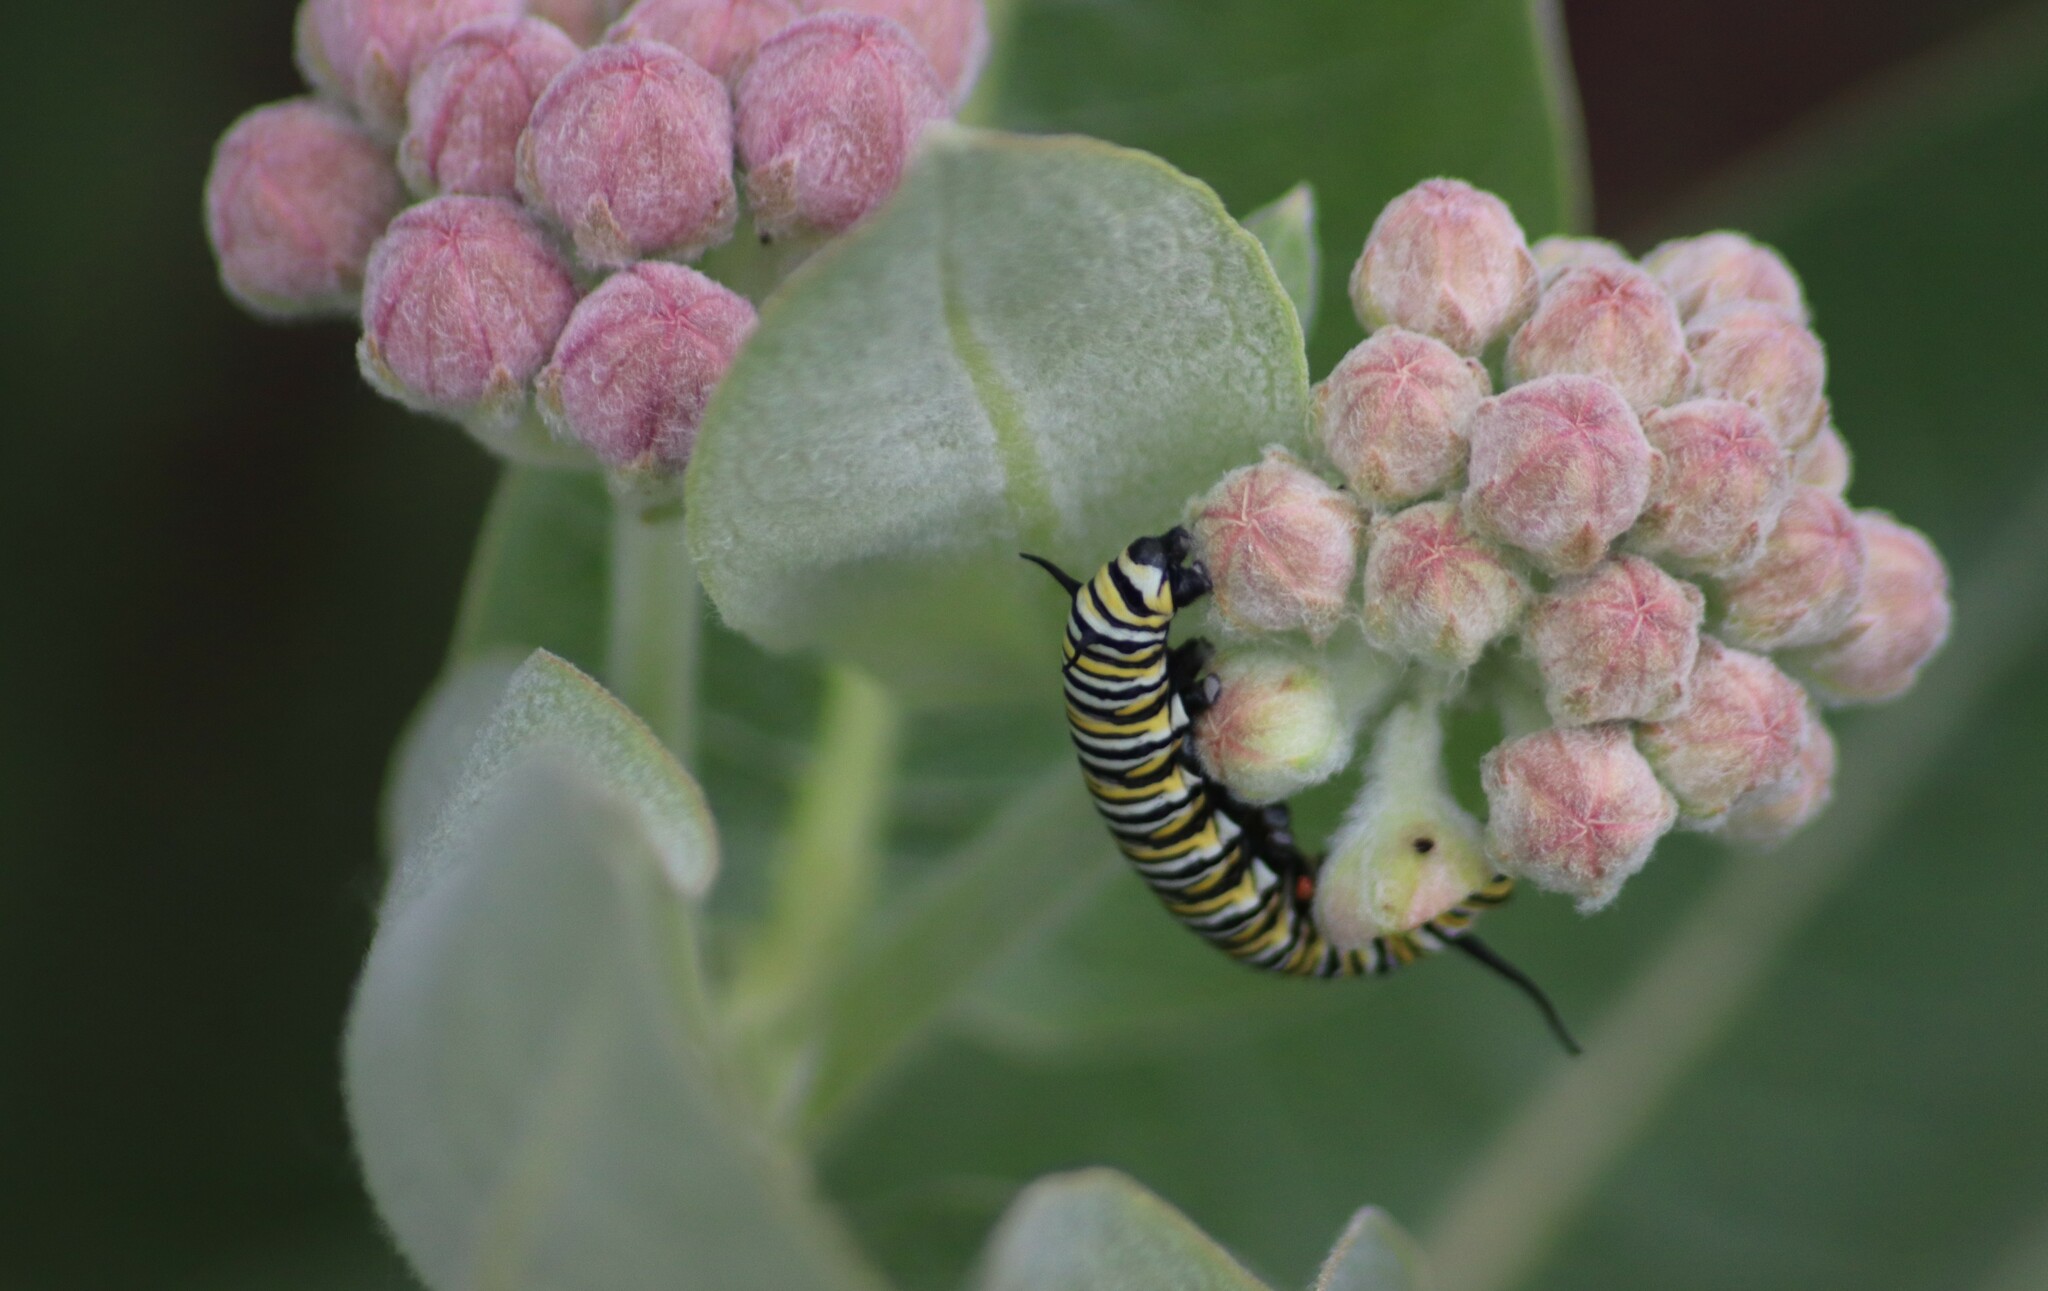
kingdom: Animalia
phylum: Arthropoda
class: Insecta
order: Lepidoptera
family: Nymphalidae
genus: Danaus
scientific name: Danaus plexippus
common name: Monarch
